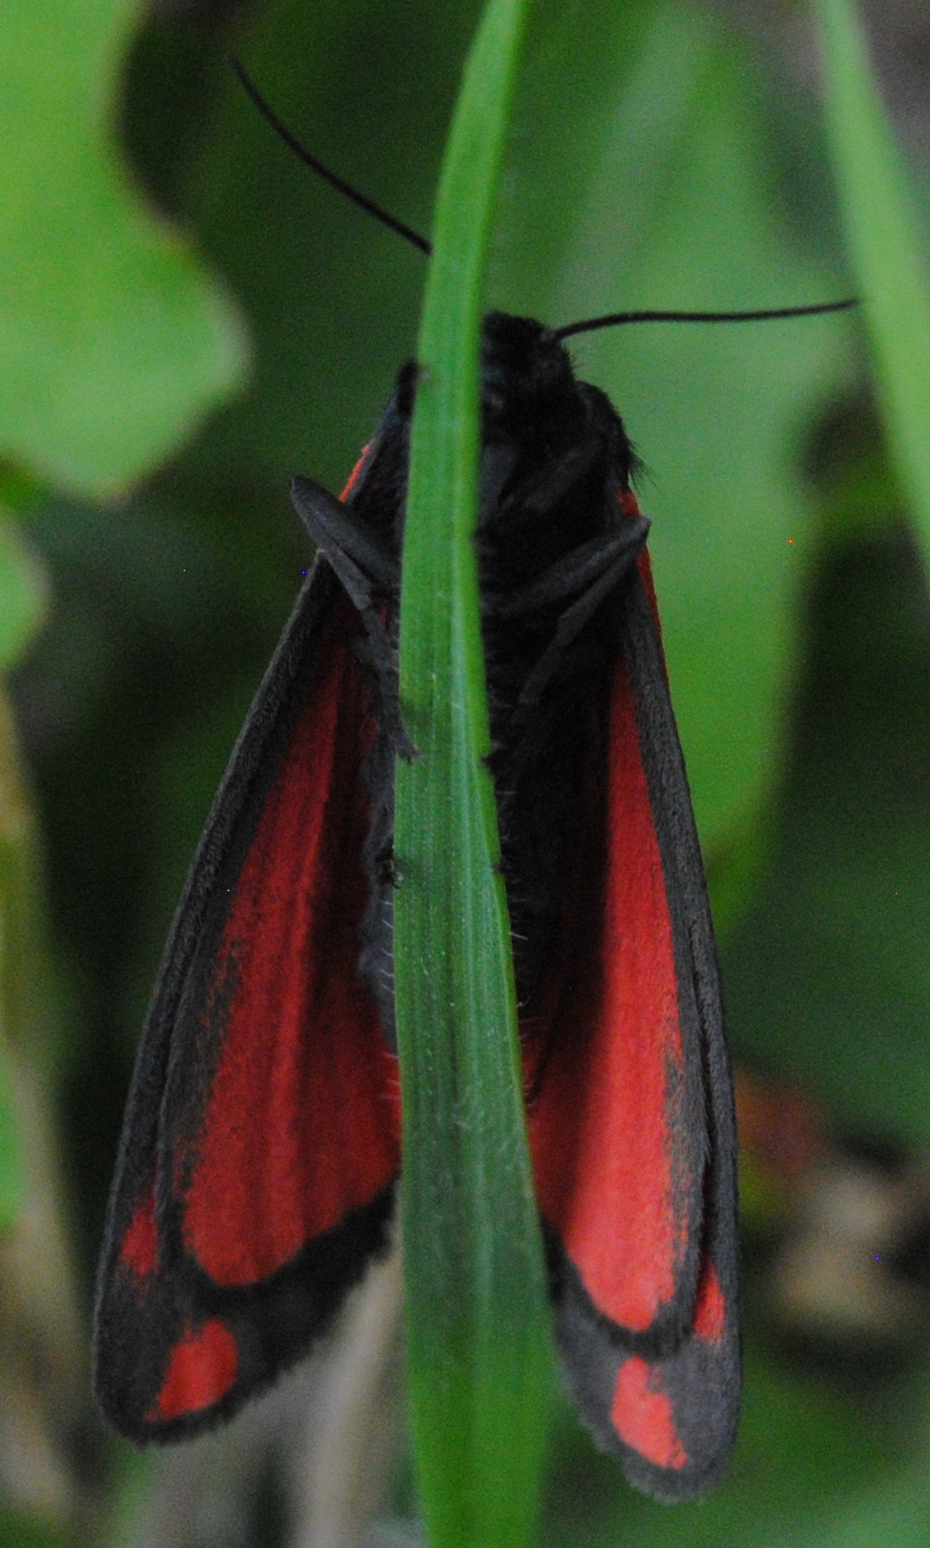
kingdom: Animalia
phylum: Arthropoda
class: Insecta
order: Lepidoptera
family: Erebidae
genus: Tyria
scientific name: Tyria jacobaeae
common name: Cinnabar
